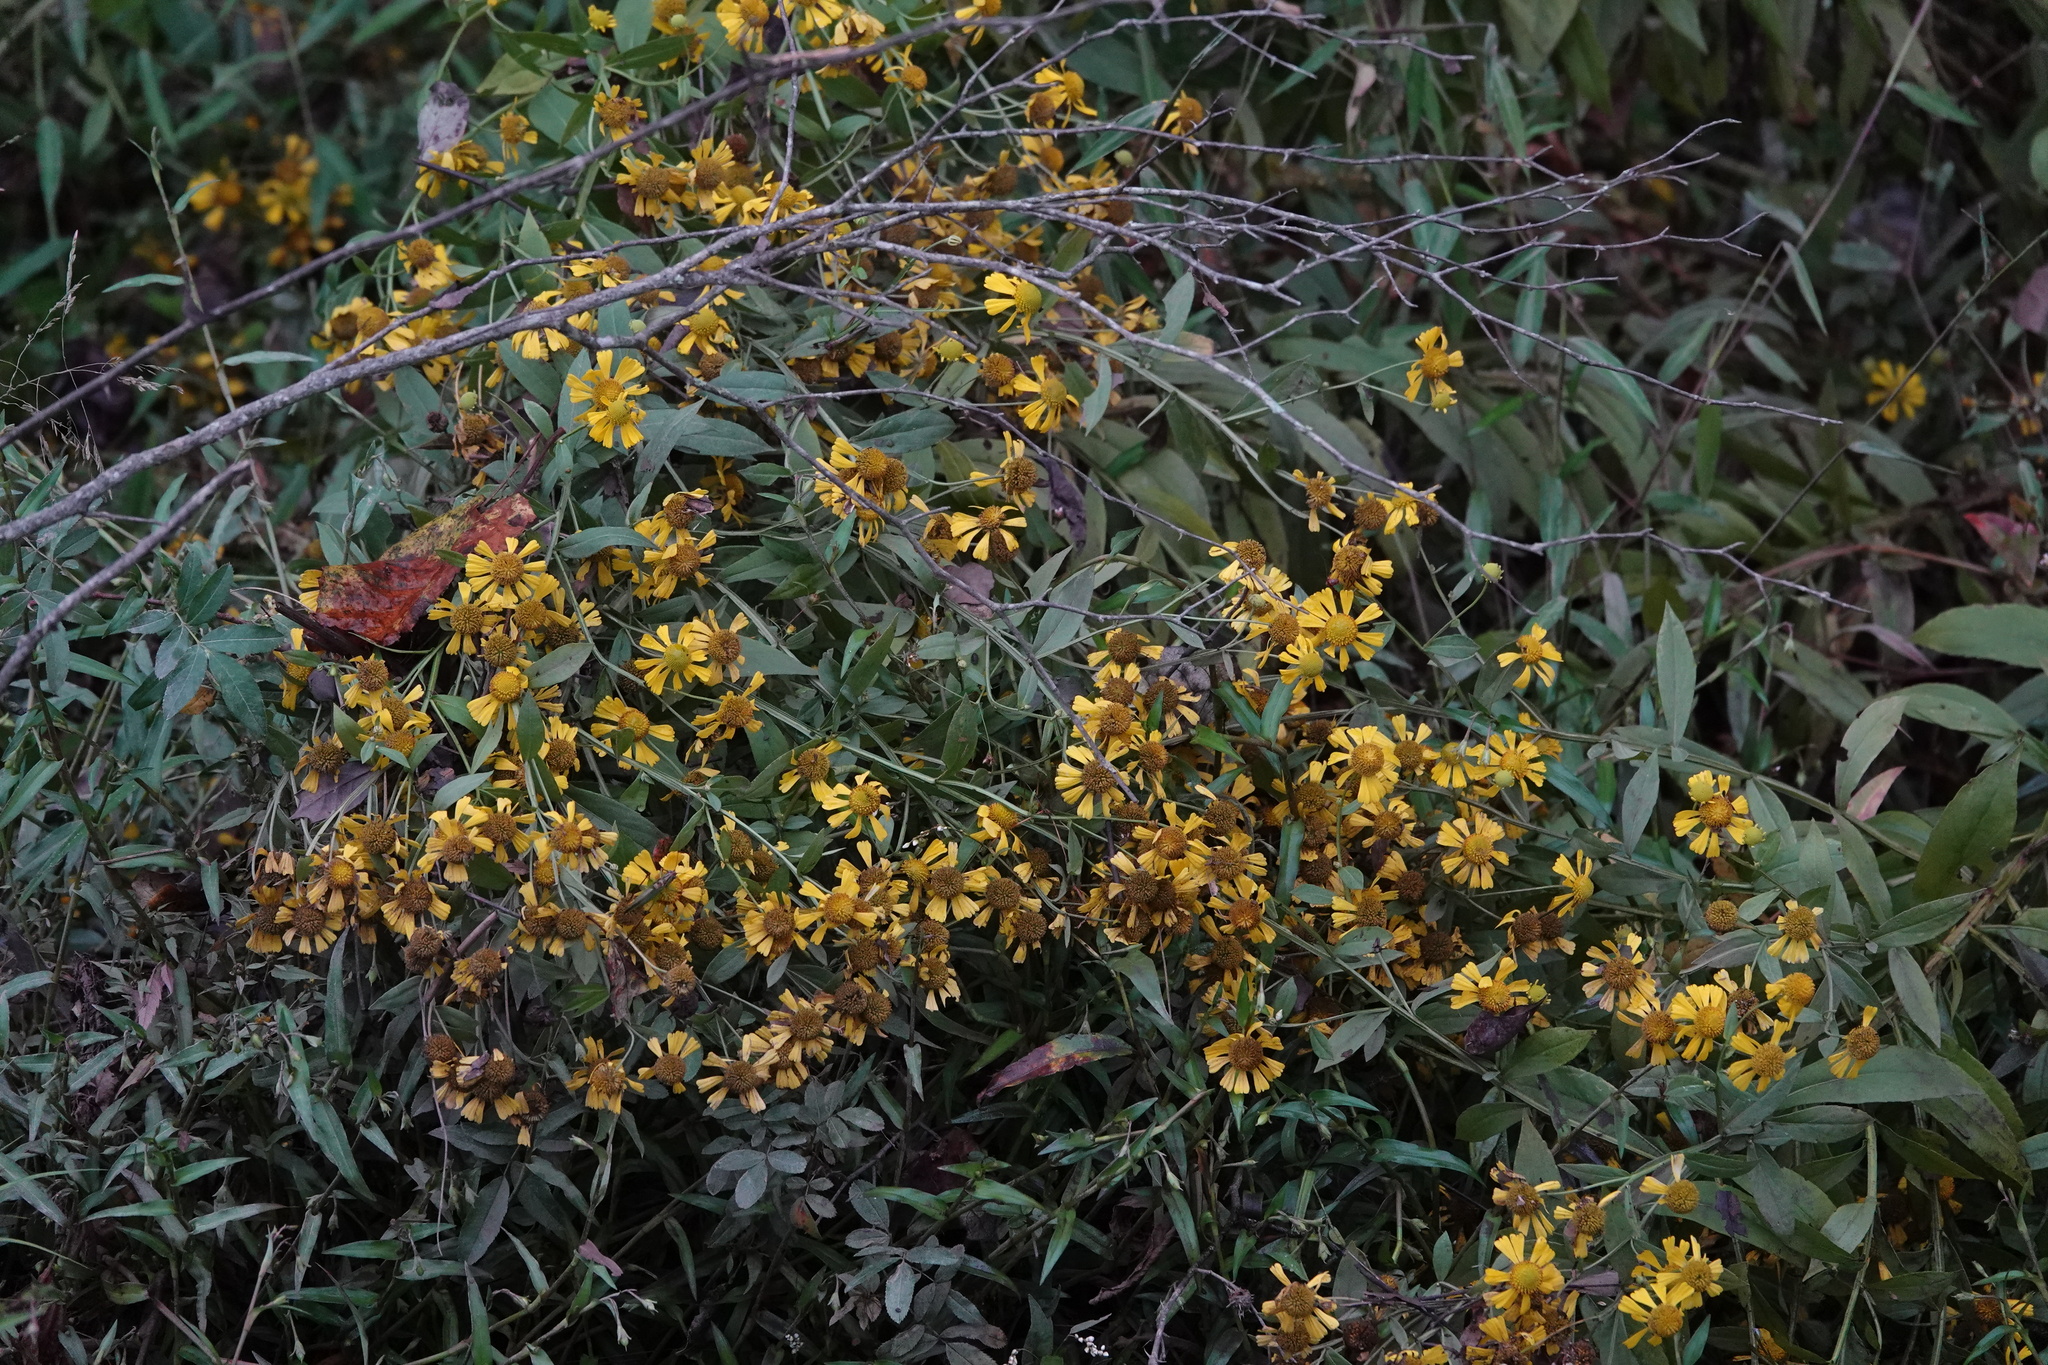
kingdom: Plantae
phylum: Tracheophyta
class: Magnoliopsida
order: Asterales
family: Asteraceae
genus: Helenium
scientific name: Helenium autumnale
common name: Sneezeweed
